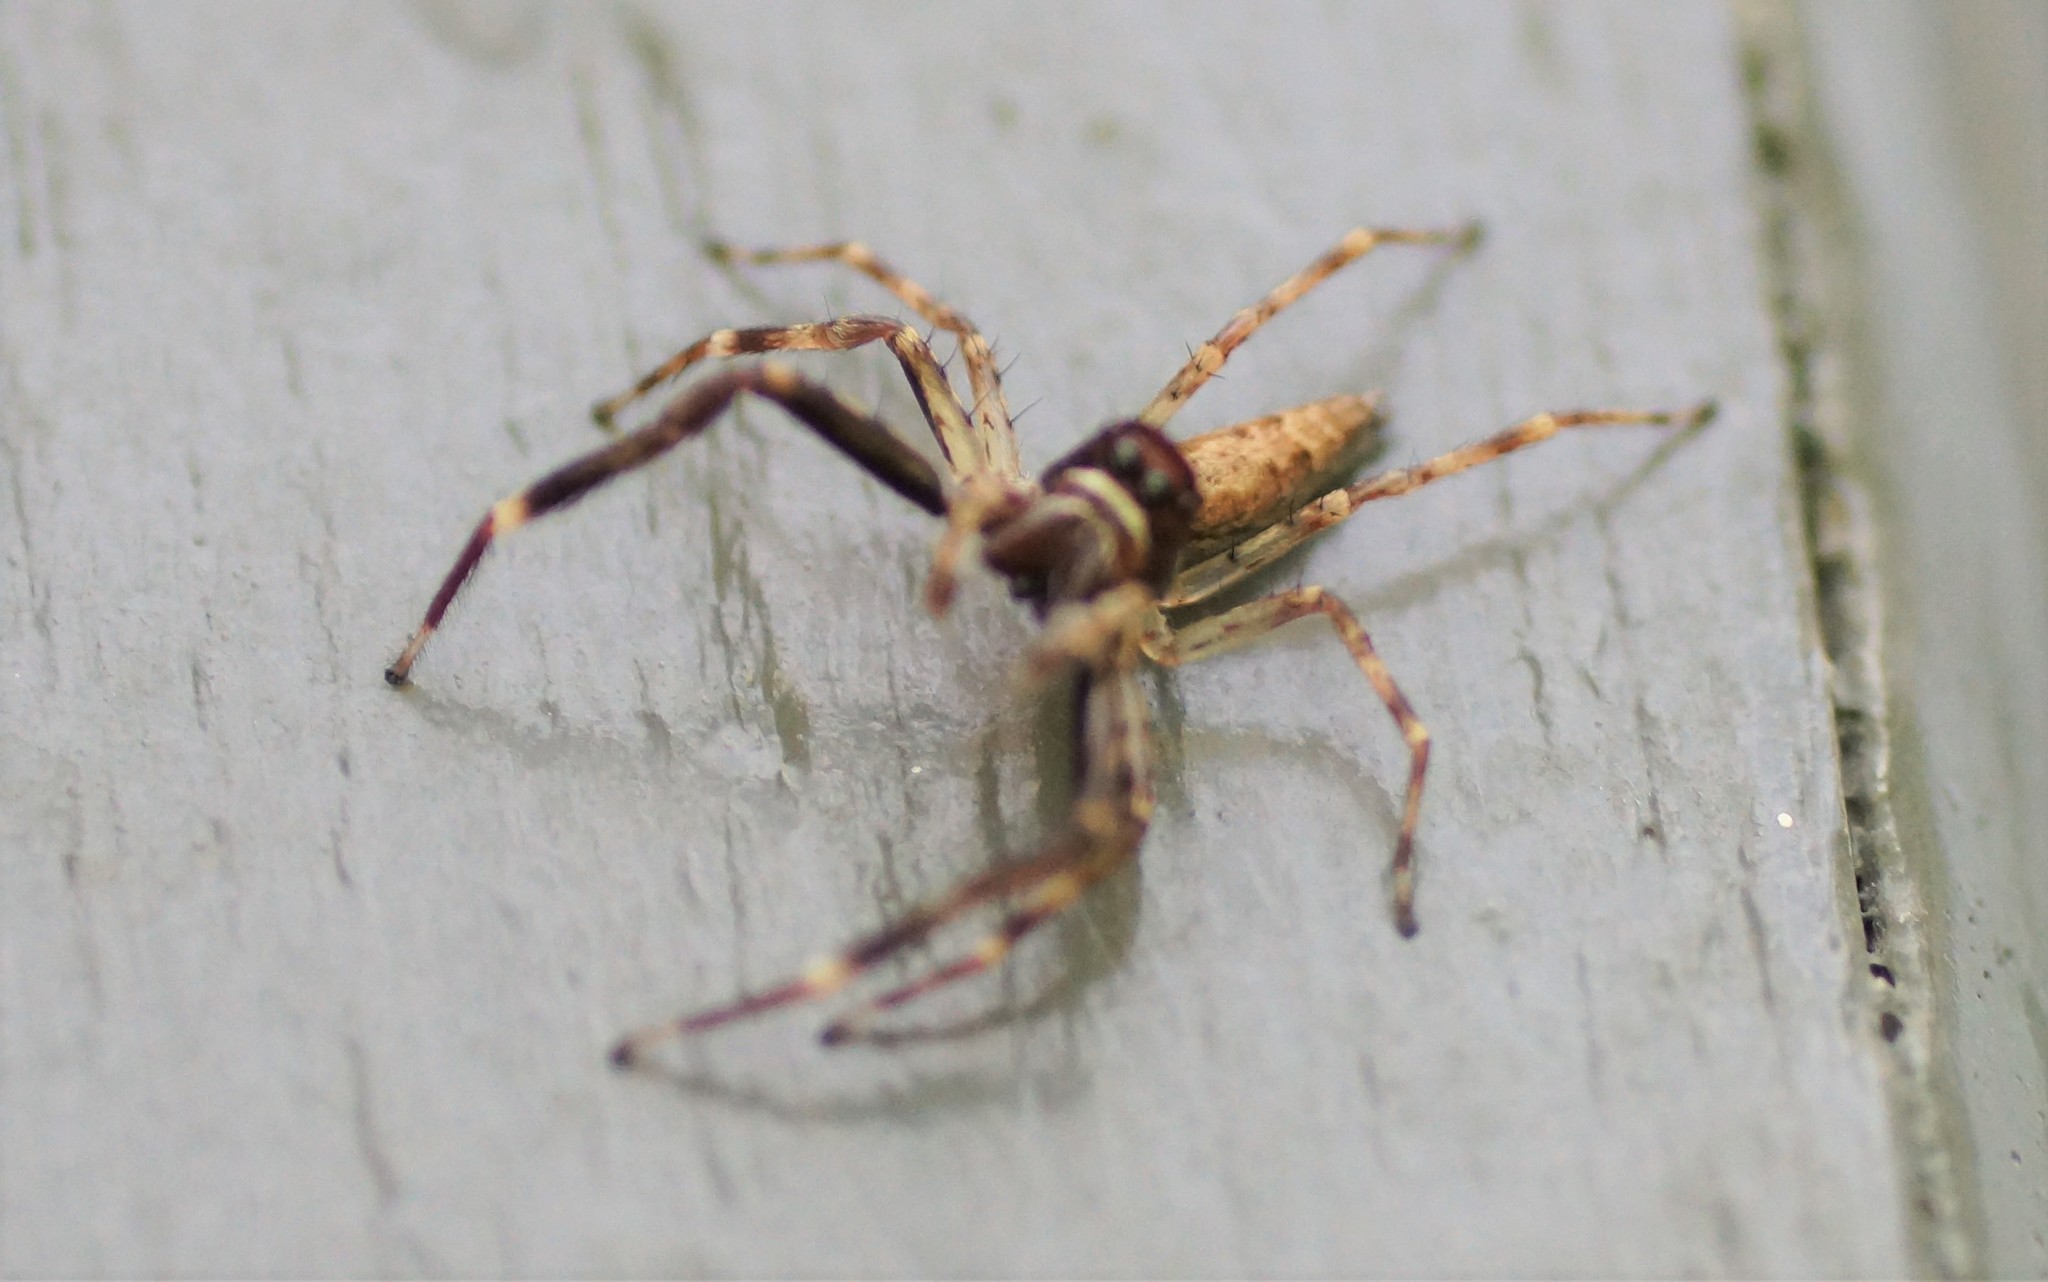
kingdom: Animalia
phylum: Arthropoda
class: Arachnida
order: Araneae
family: Salticidae
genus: Helpis
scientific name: Helpis minitabunda
